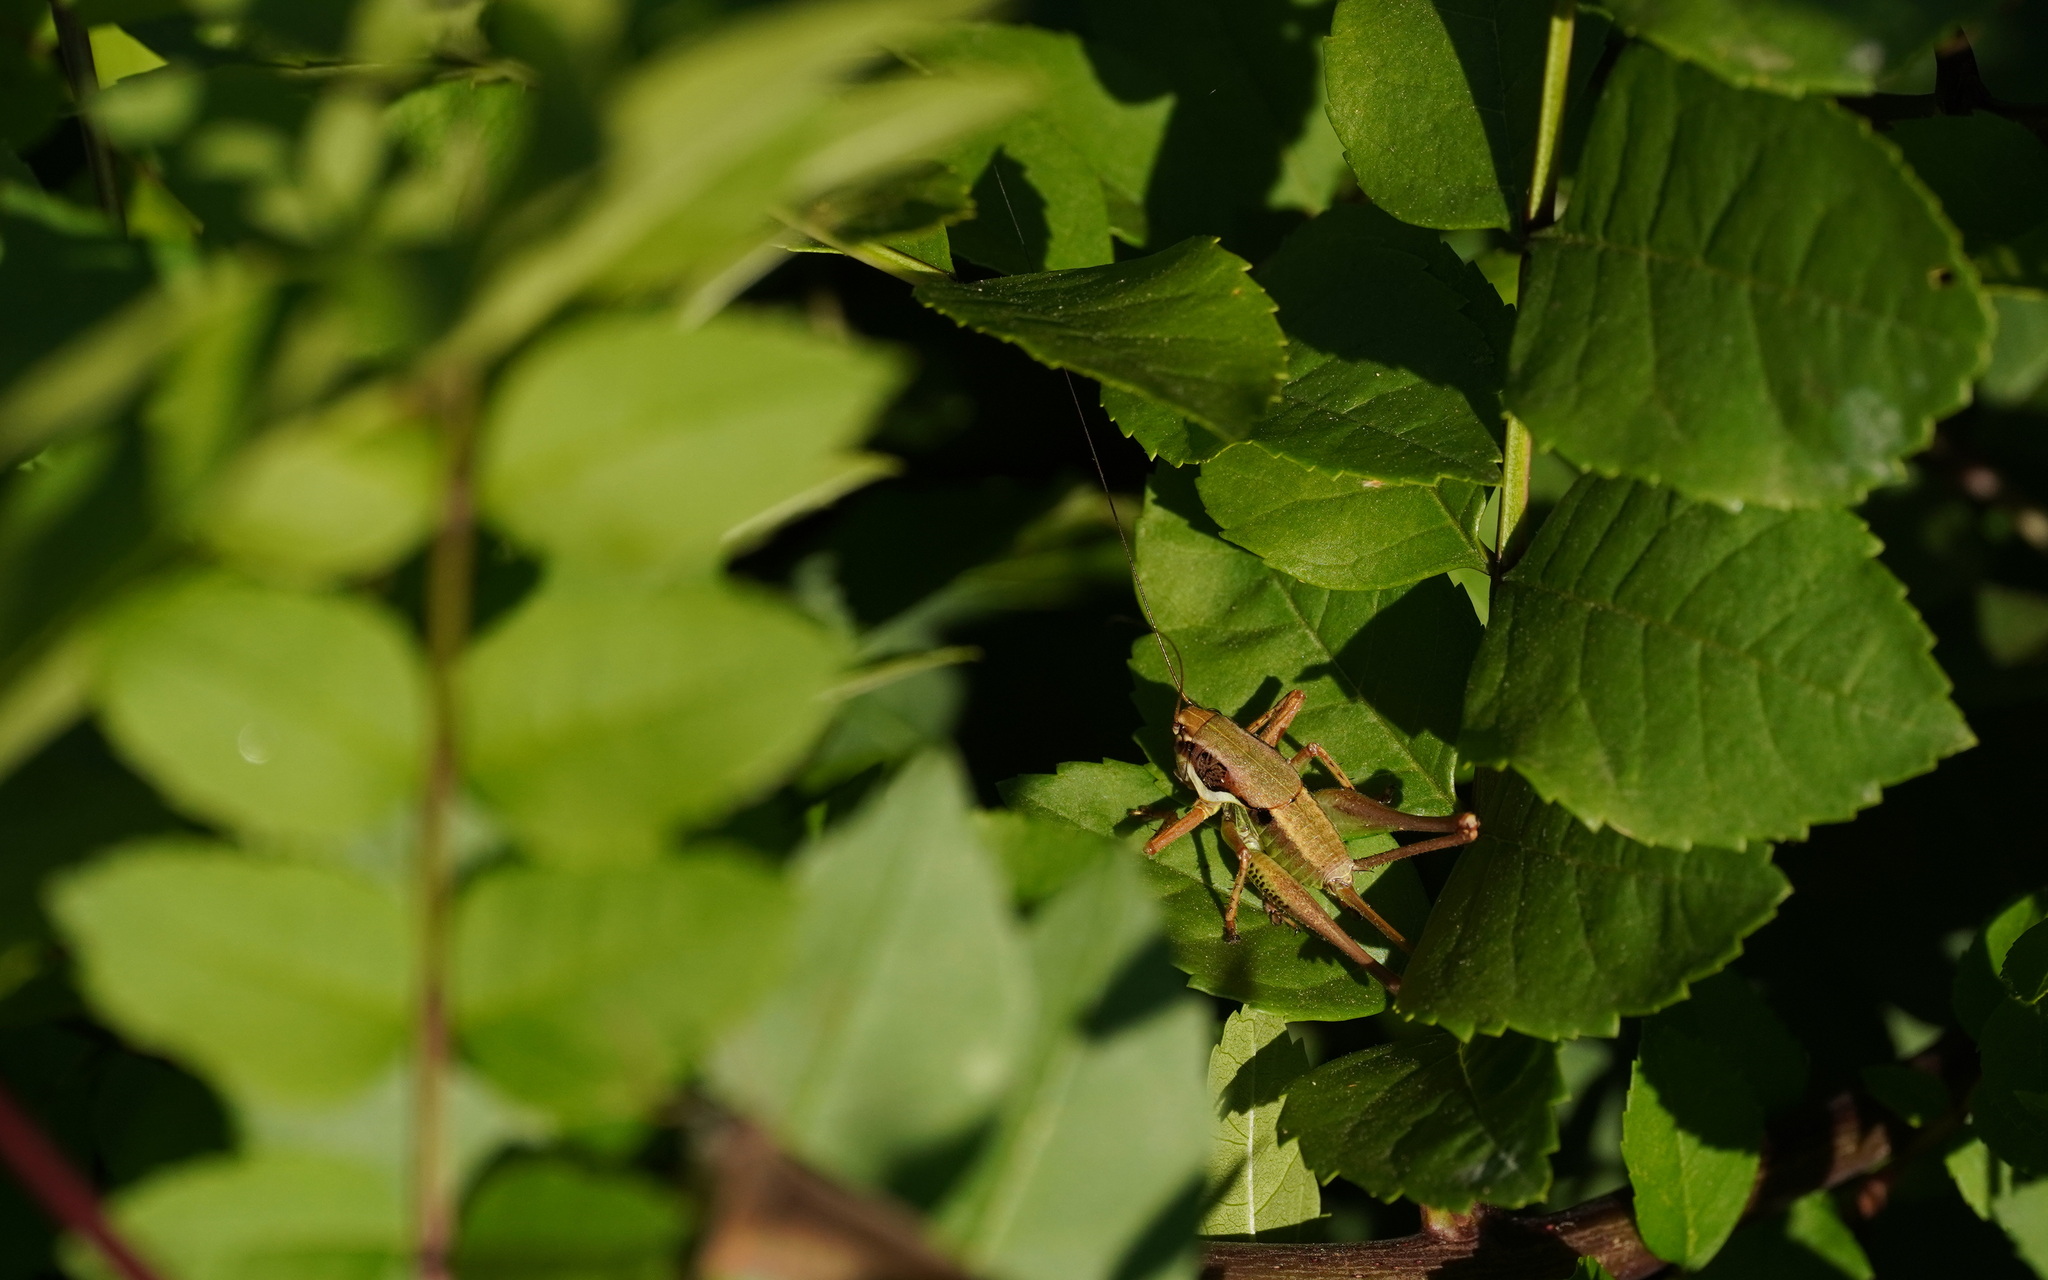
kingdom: Animalia
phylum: Arthropoda
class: Insecta
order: Orthoptera
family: Tettigoniidae
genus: Pholidoptera
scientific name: Pholidoptera femorata
